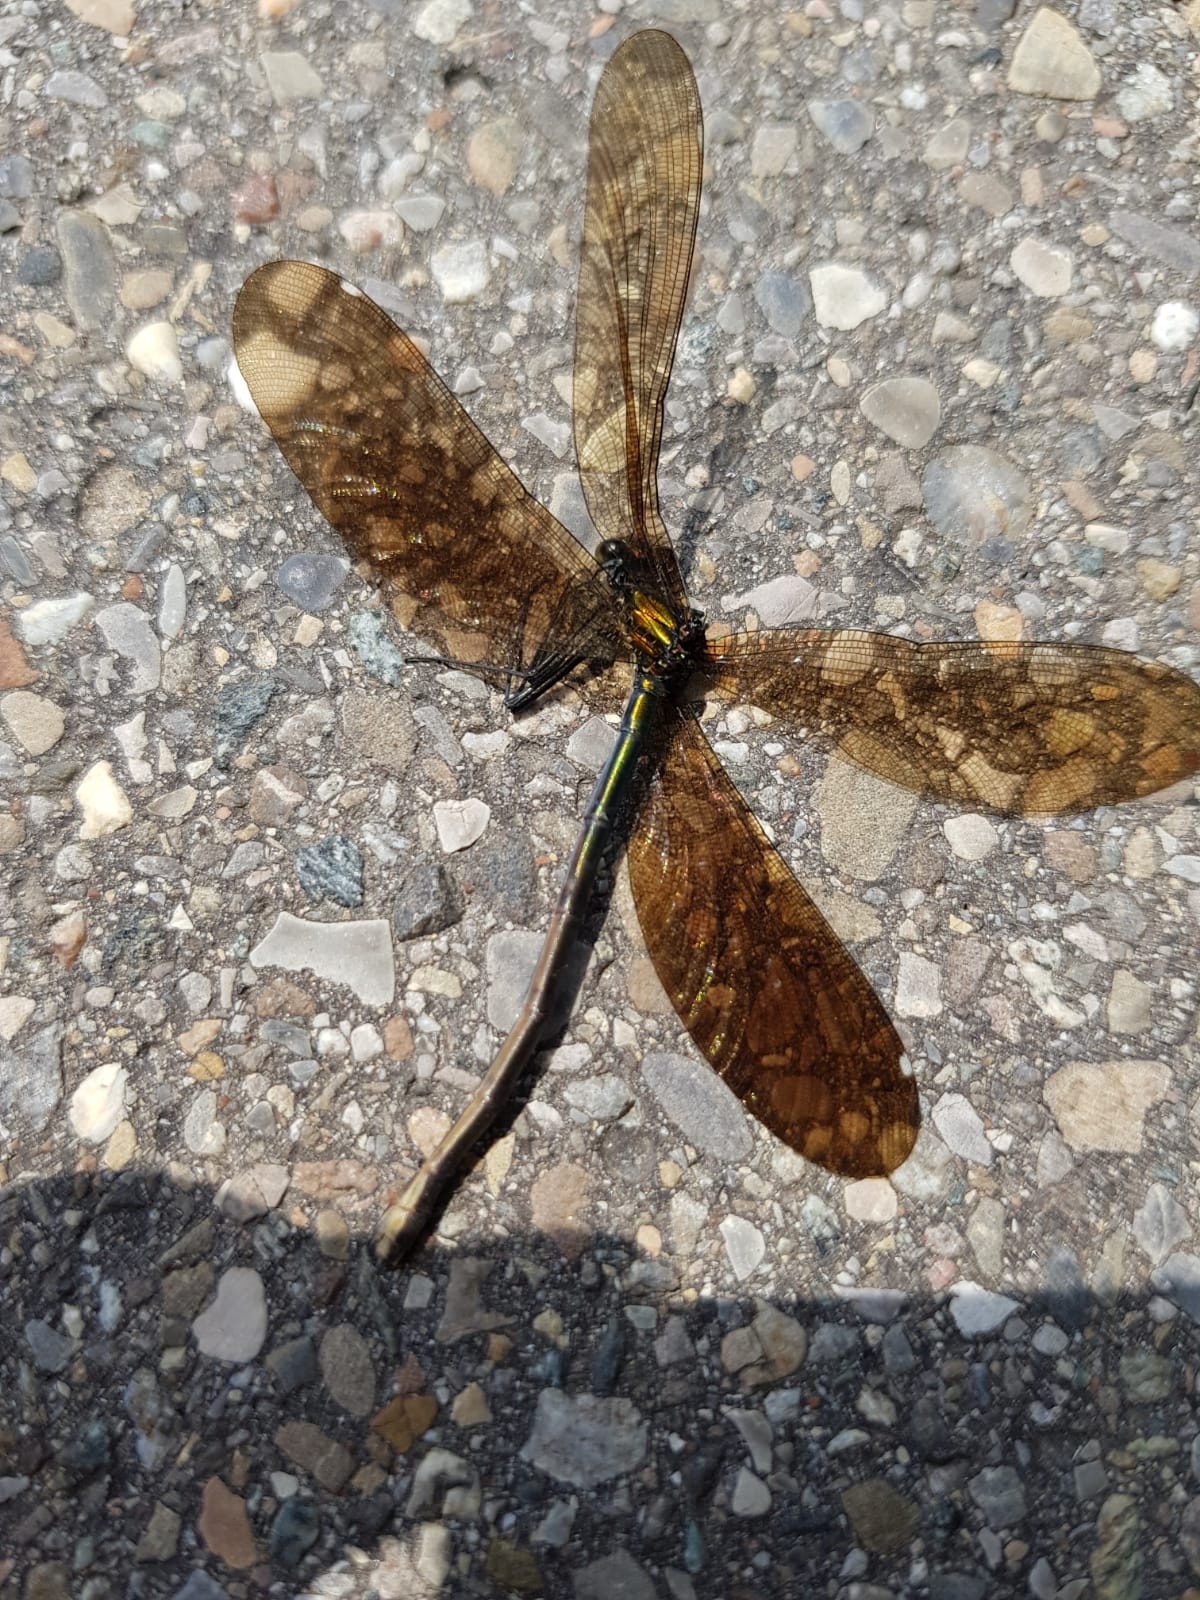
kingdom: Animalia
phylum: Arthropoda
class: Insecta
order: Odonata
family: Calopterygidae
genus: Calopteryx
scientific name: Calopteryx virgo
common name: Beautiful demoiselle
